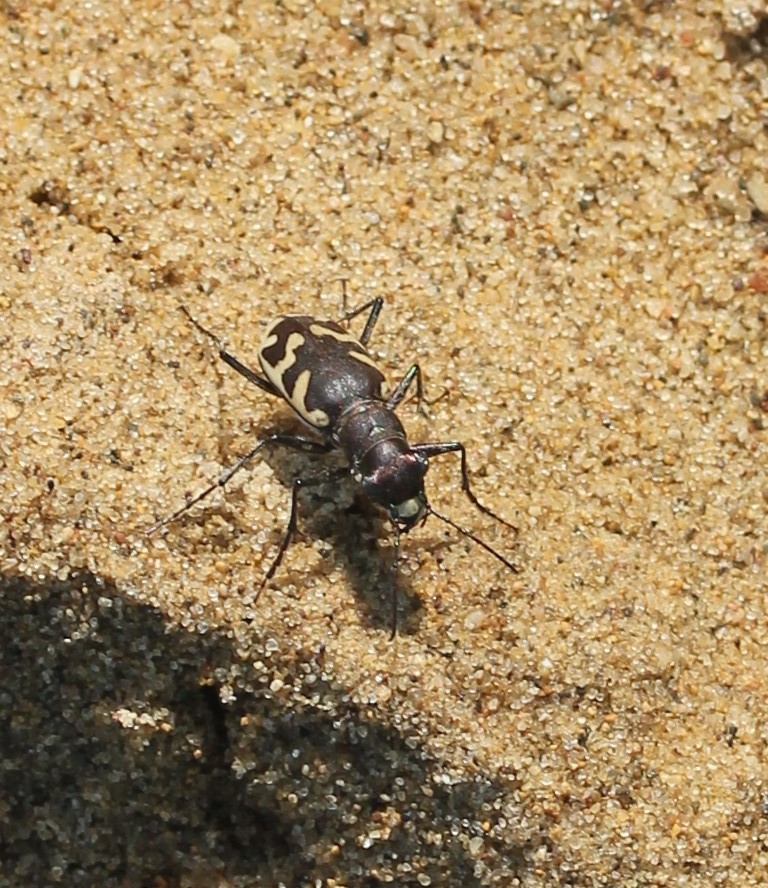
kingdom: Animalia
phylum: Arthropoda
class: Insecta
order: Coleoptera
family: Carabidae
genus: Cicindela
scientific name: Cicindela formosa
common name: Big sand tiger beetle
